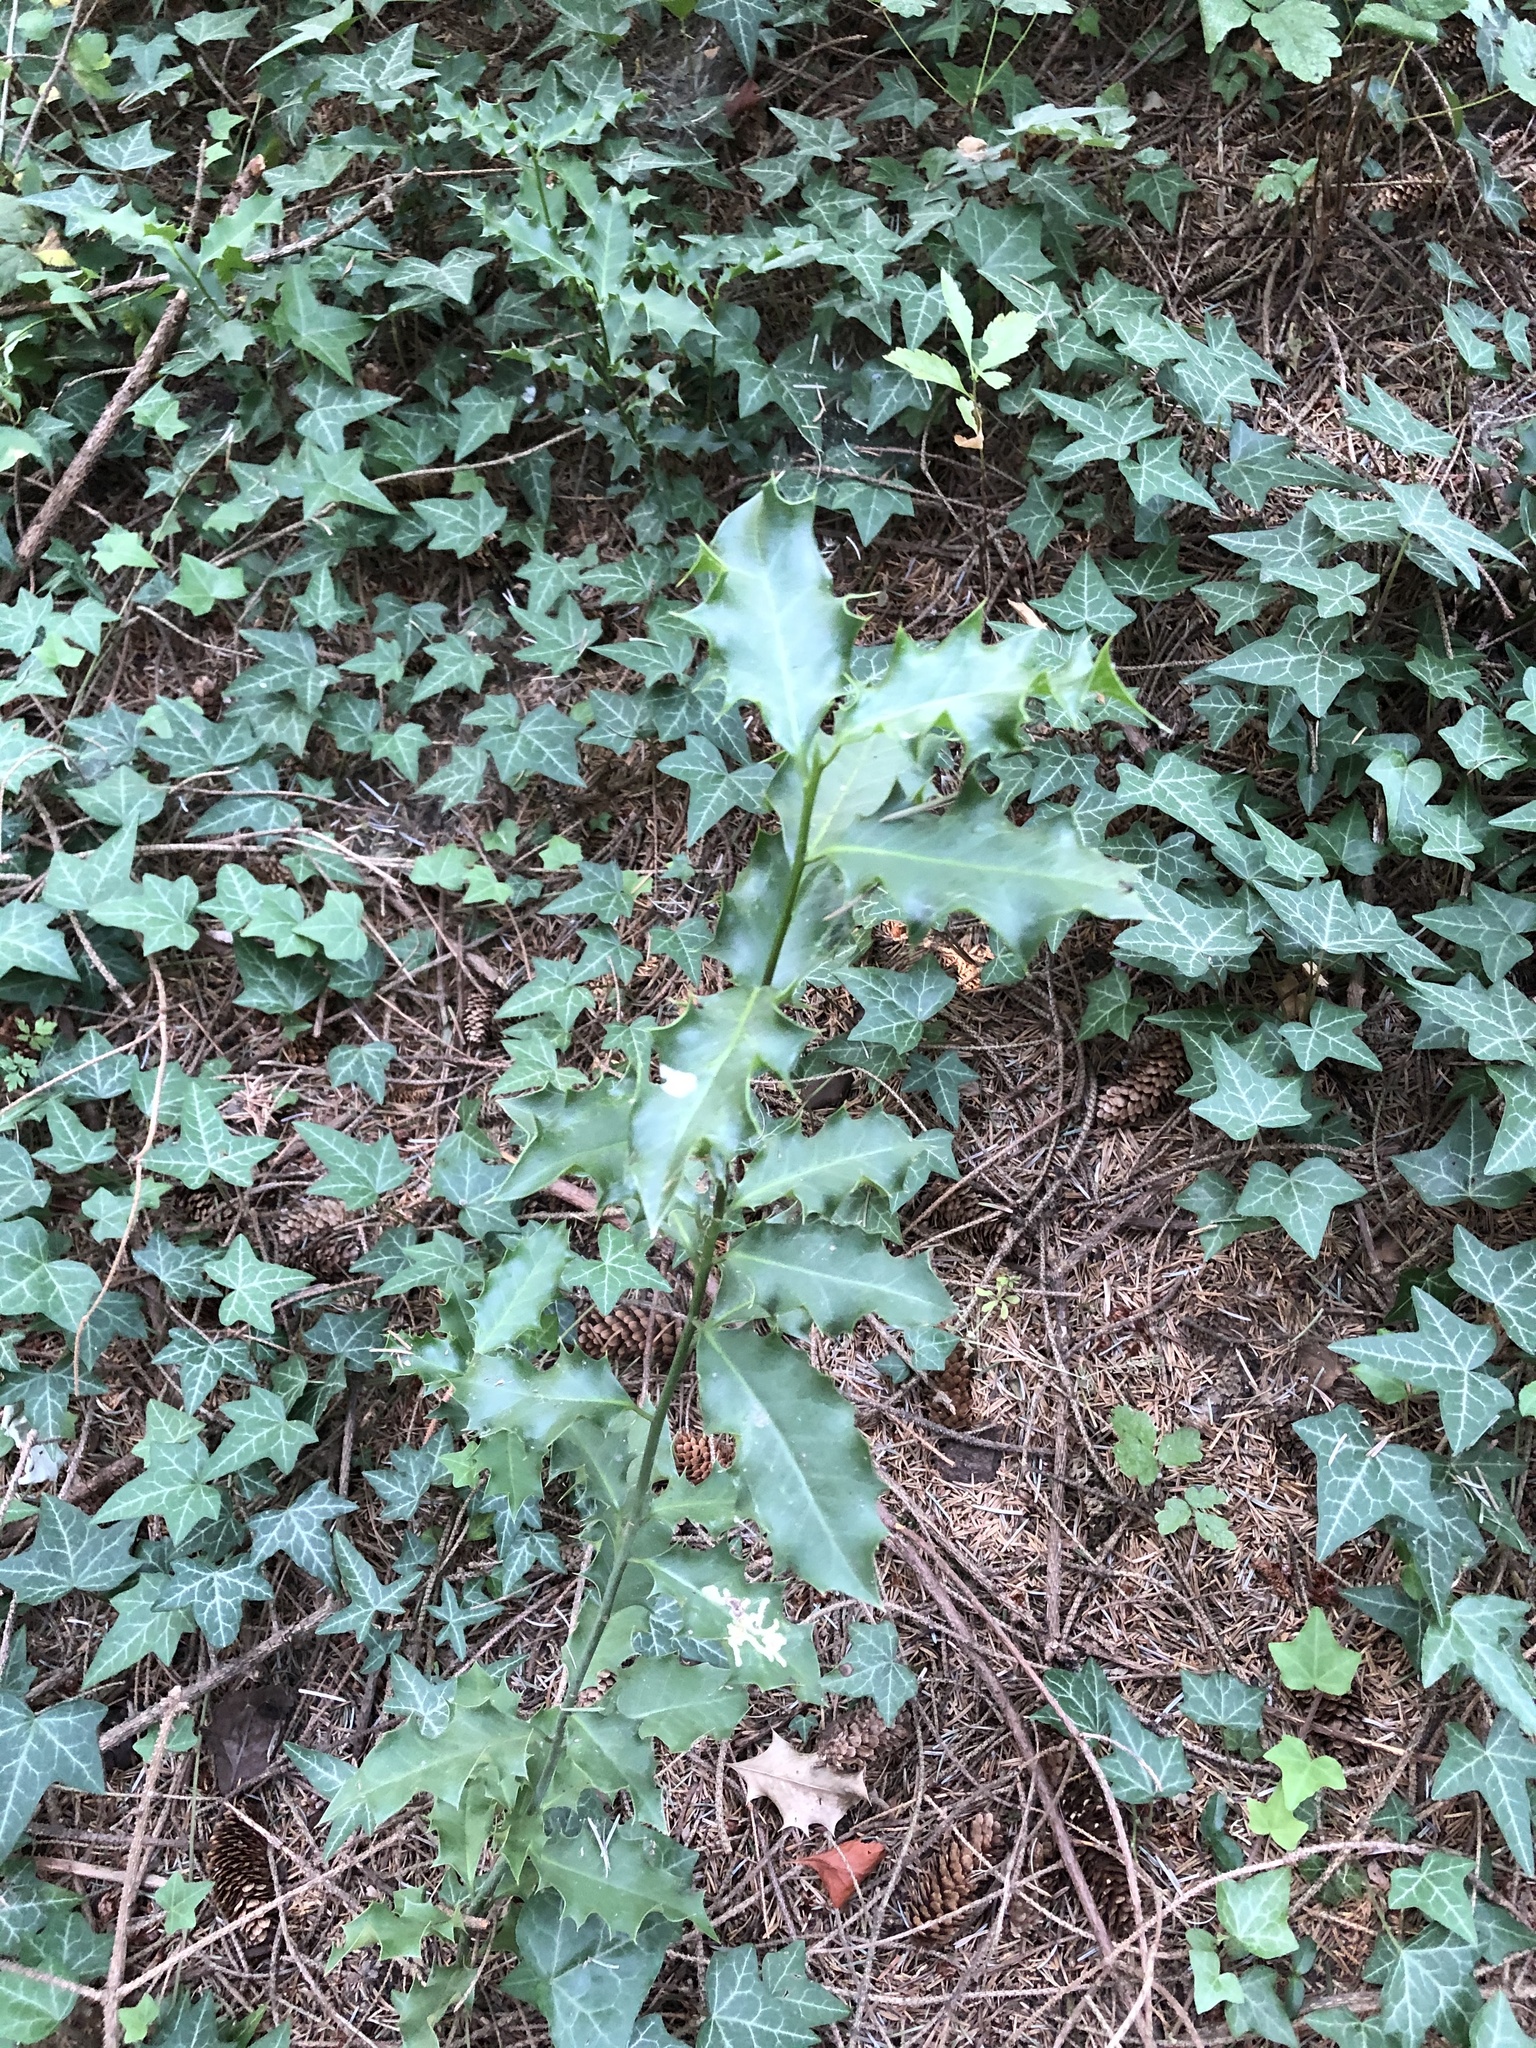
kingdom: Plantae
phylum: Tracheophyta
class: Magnoliopsida
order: Aquifoliales
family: Aquifoliaceae
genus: Ilex
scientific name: Ilex aquifolium
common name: English holly
